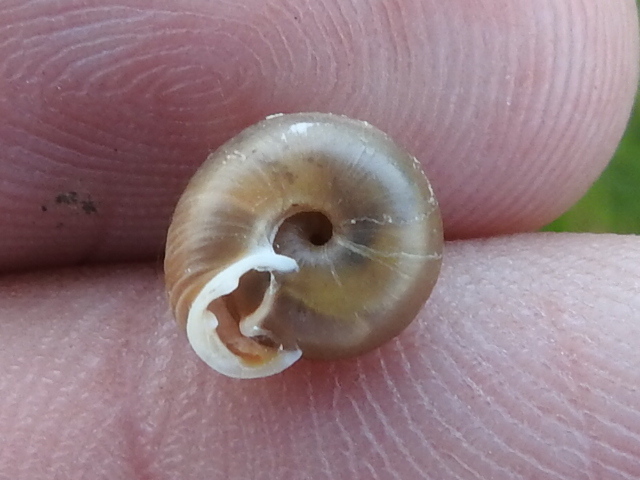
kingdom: Animalia
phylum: Mollusca
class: Gastropoda
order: Stylommatophora
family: Polygyridae
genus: Linisa
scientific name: Linisa texasiana
